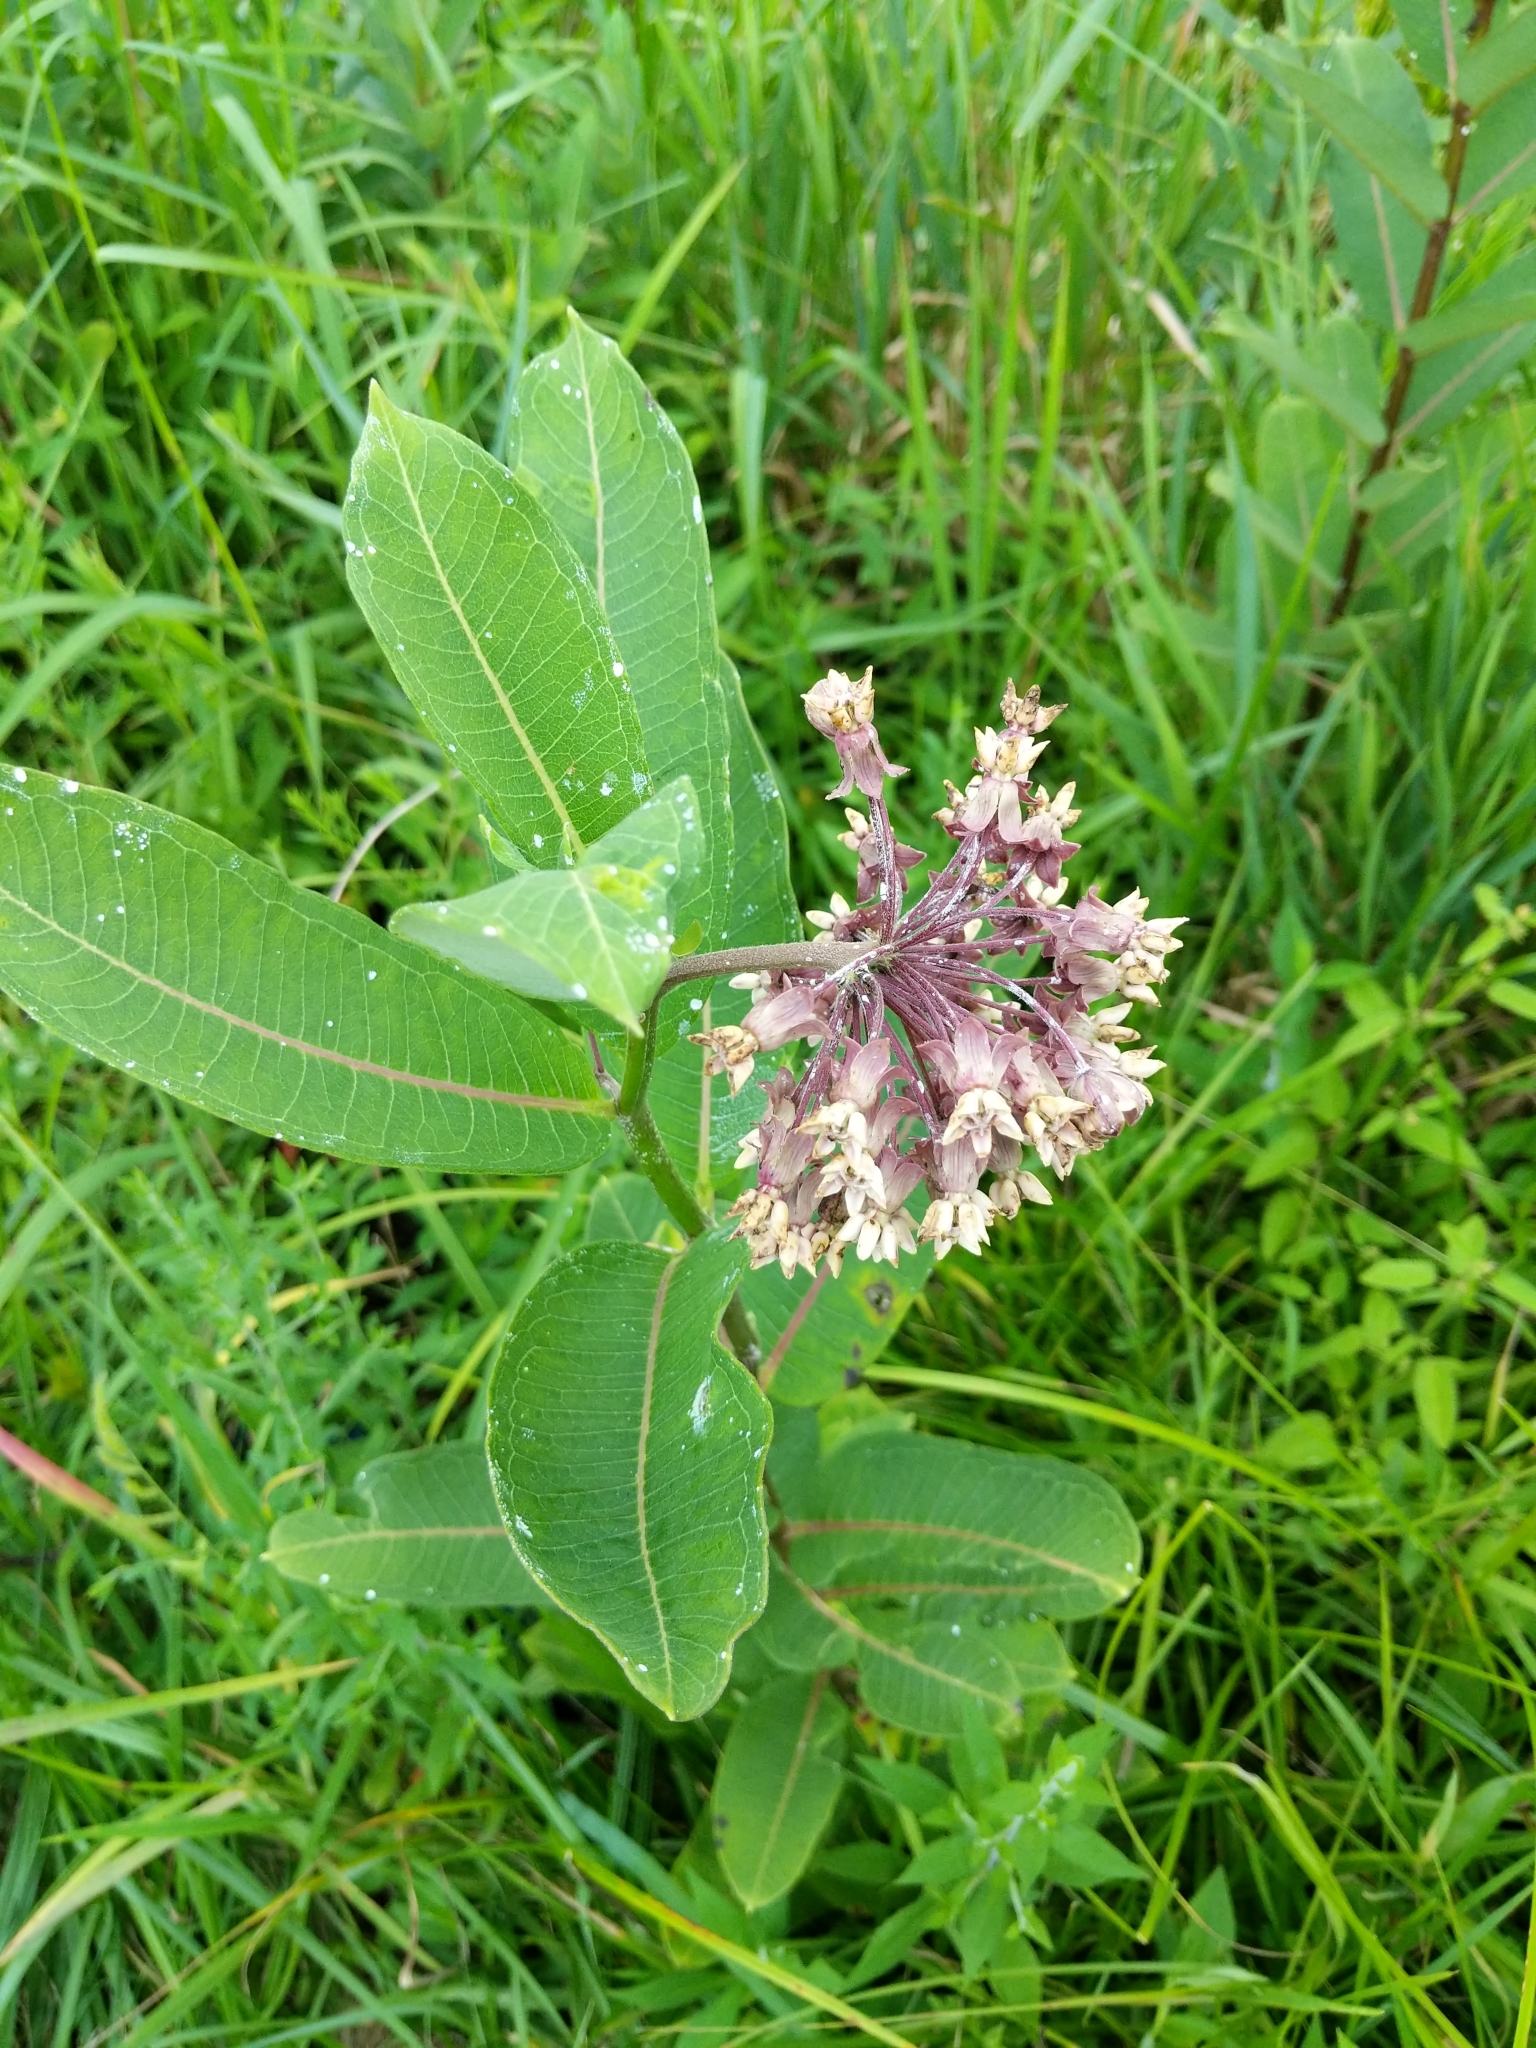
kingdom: Plantae
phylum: Tracheophyta
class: Magnoliopsida
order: Gentianales
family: Apocynaceae
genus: Asclepias
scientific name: Asclepias syriaca
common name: Common milkweed
